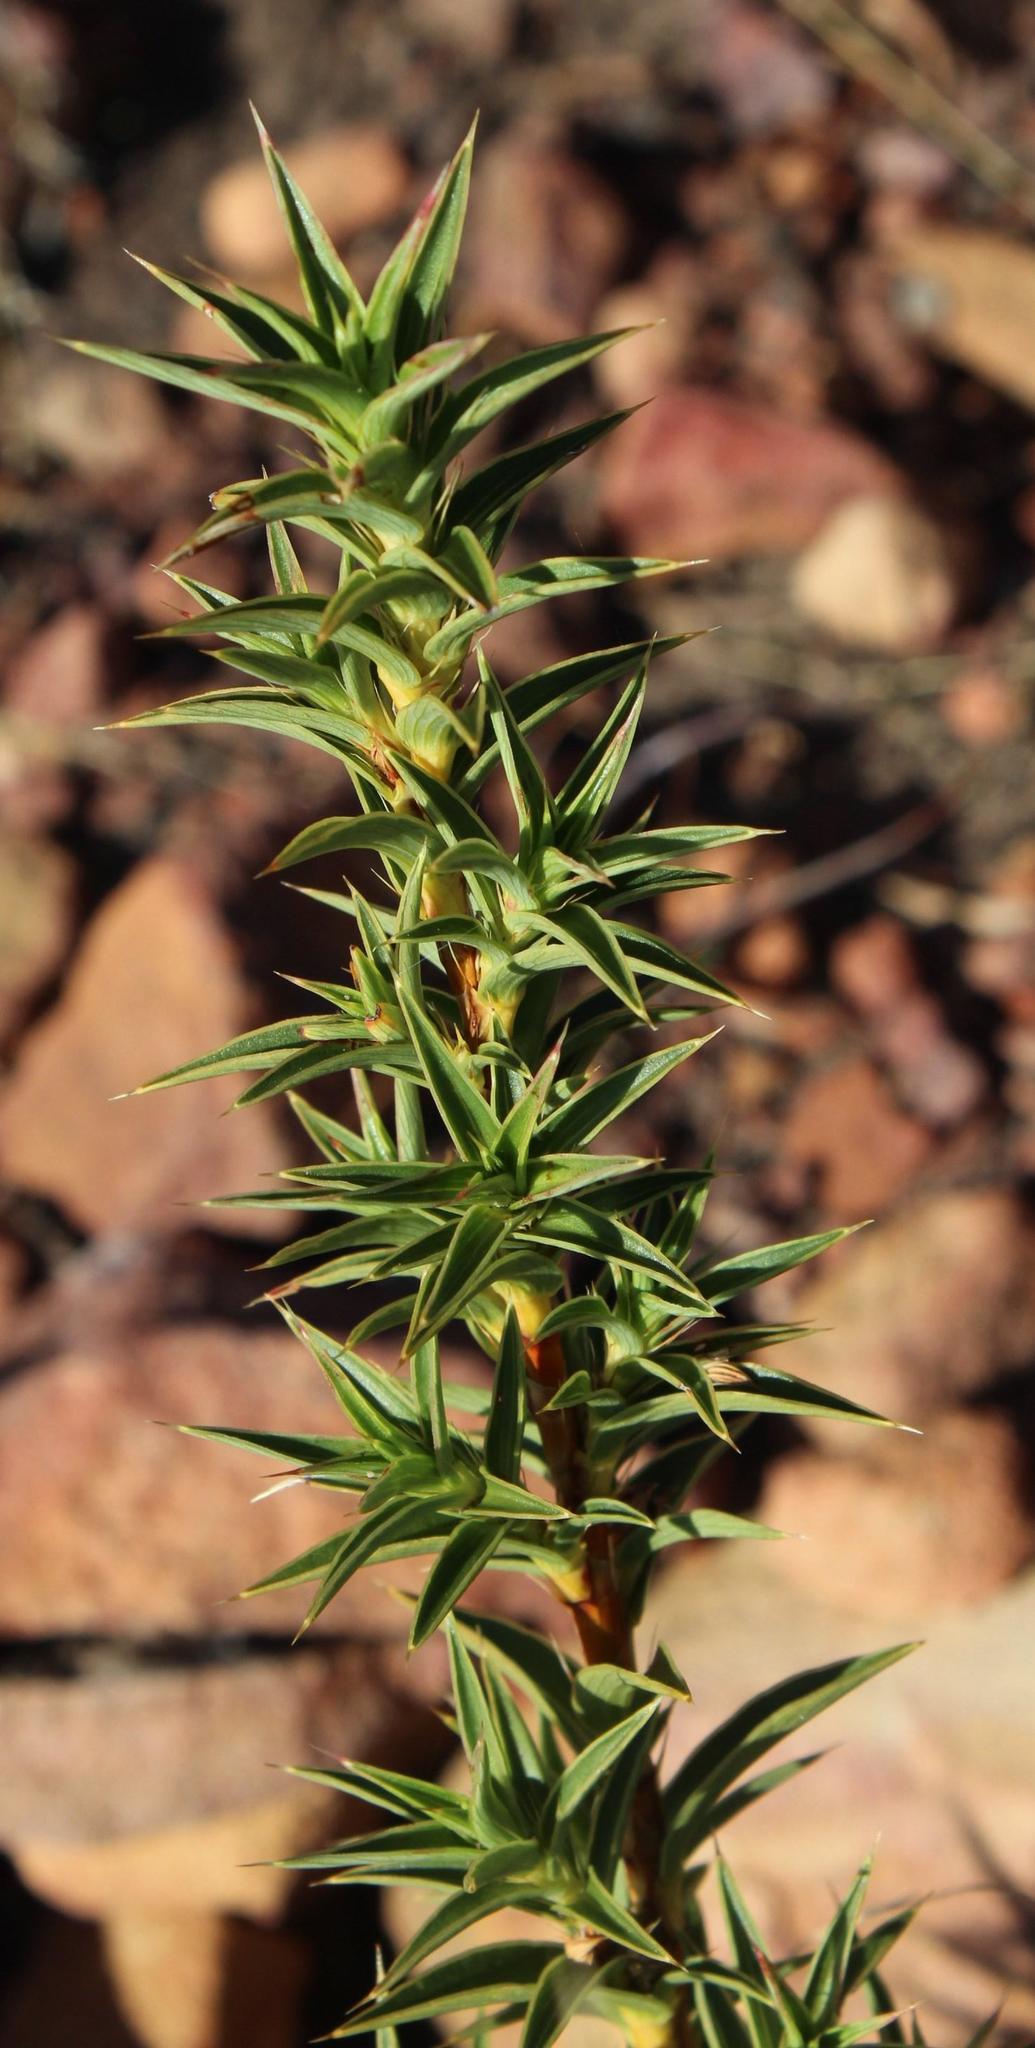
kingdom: Plantae
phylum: Tracheophyta
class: Magnoliopsida
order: Rosales
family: Rosaceae
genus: Cliffortia
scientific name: Cliffortia acanthophylla
